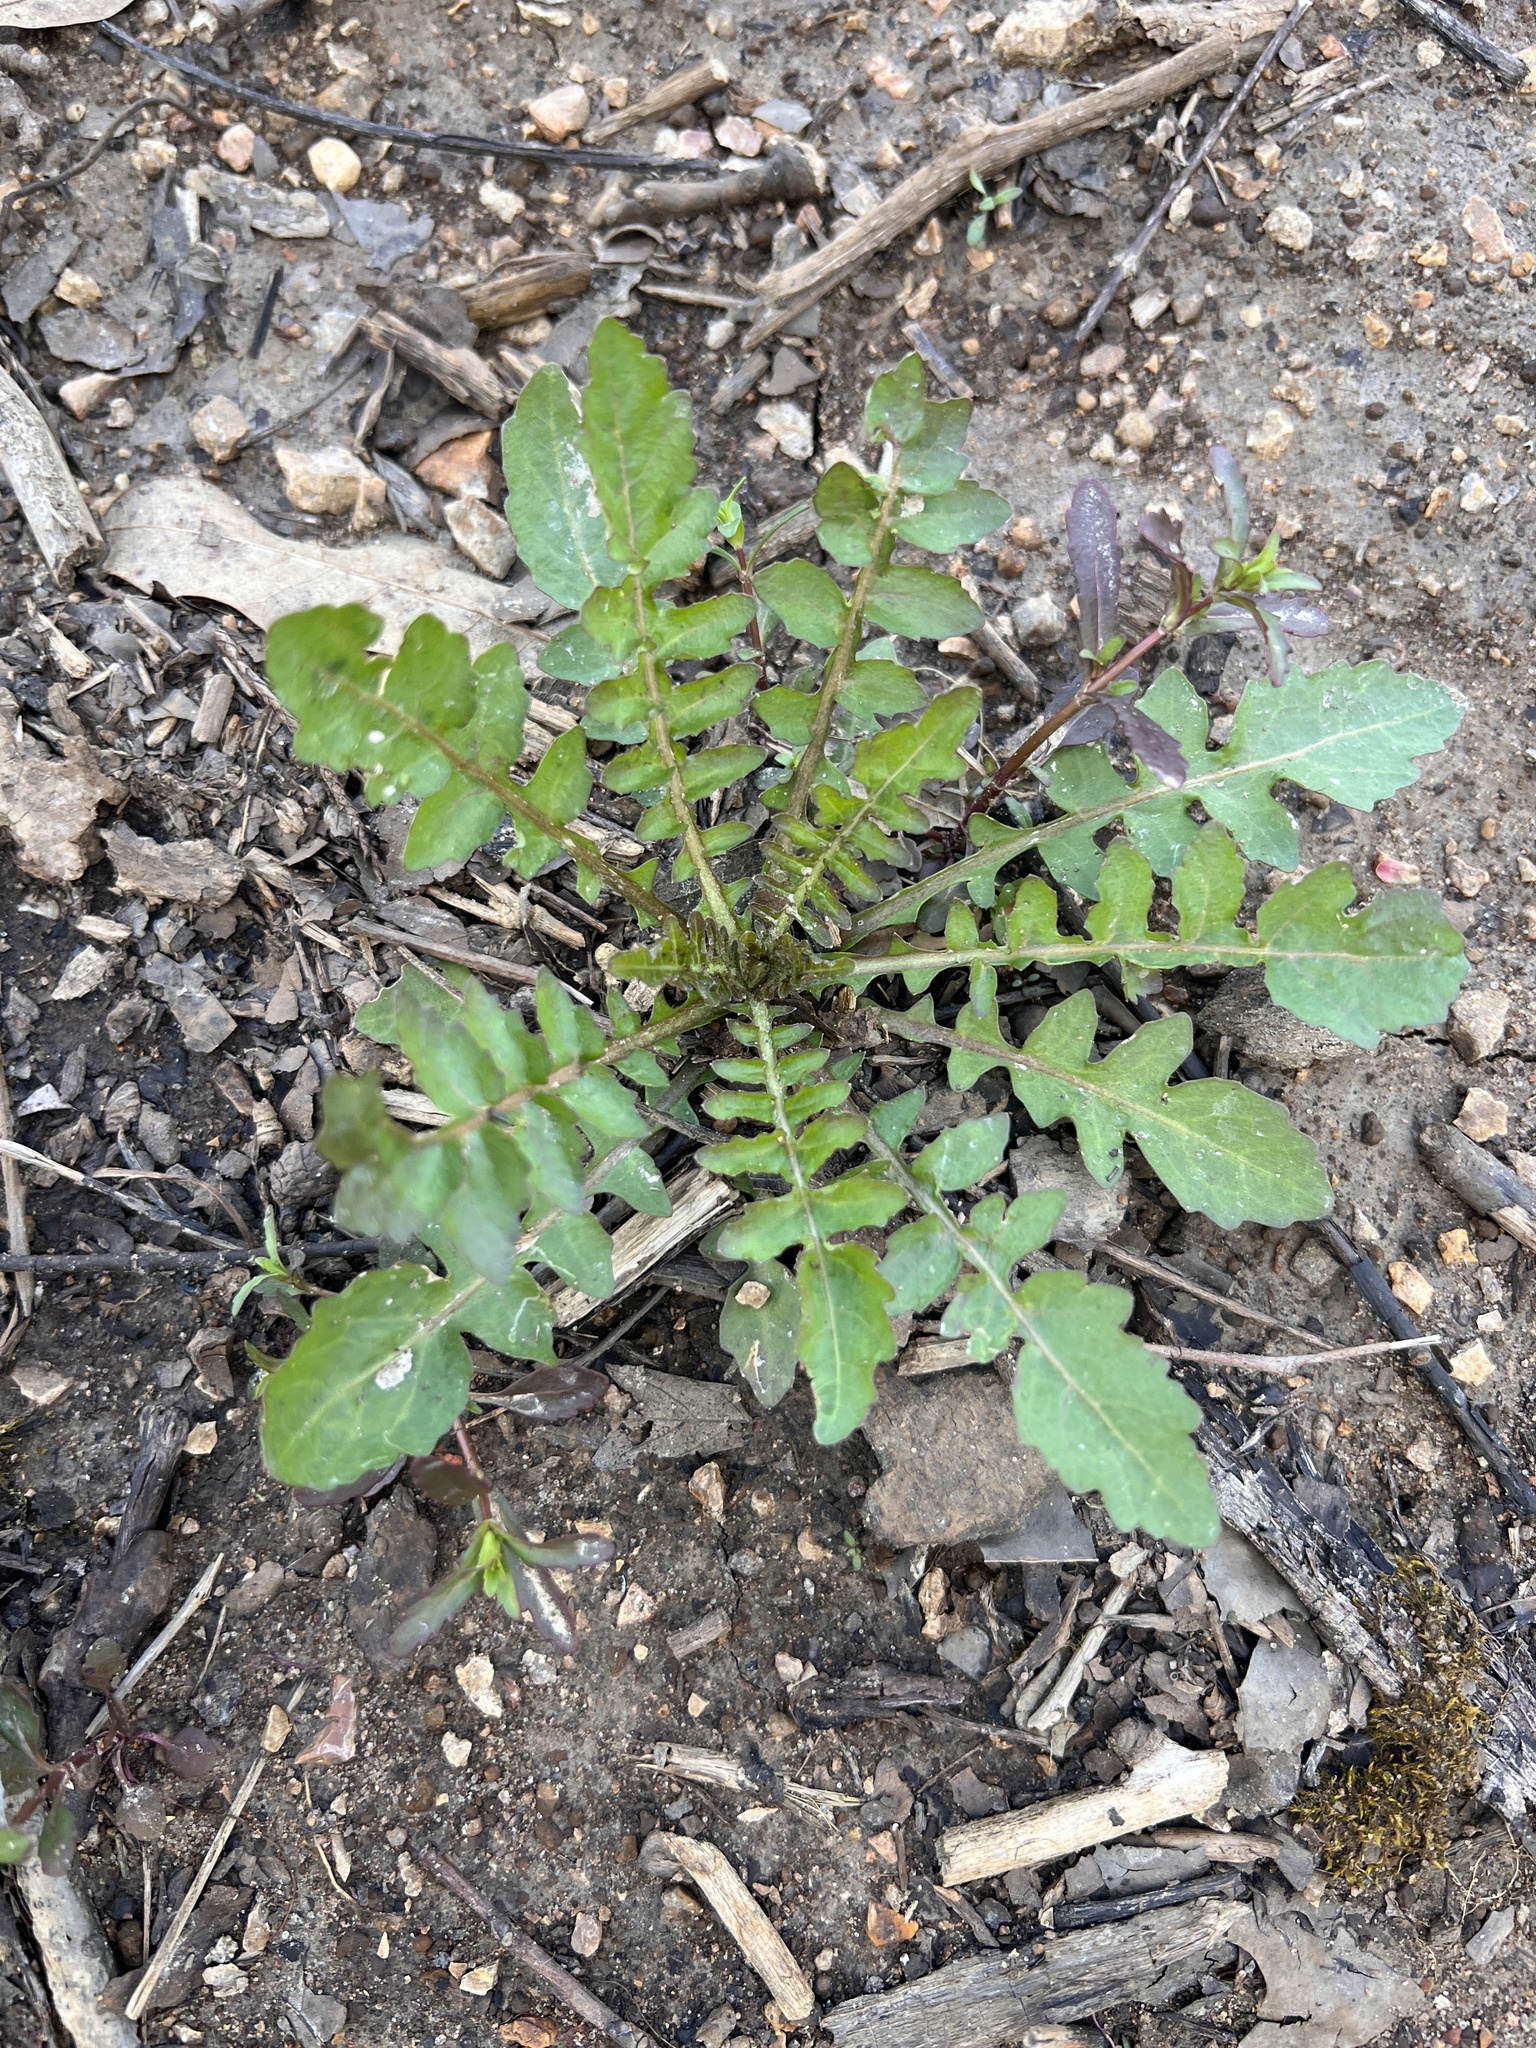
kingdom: Plantae
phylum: Tracheophyta
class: Magnoliopsida
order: Brassicales
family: Brassicaceae
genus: Rorippa
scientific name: Rorippa palustris
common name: Marsh yellow-cress
